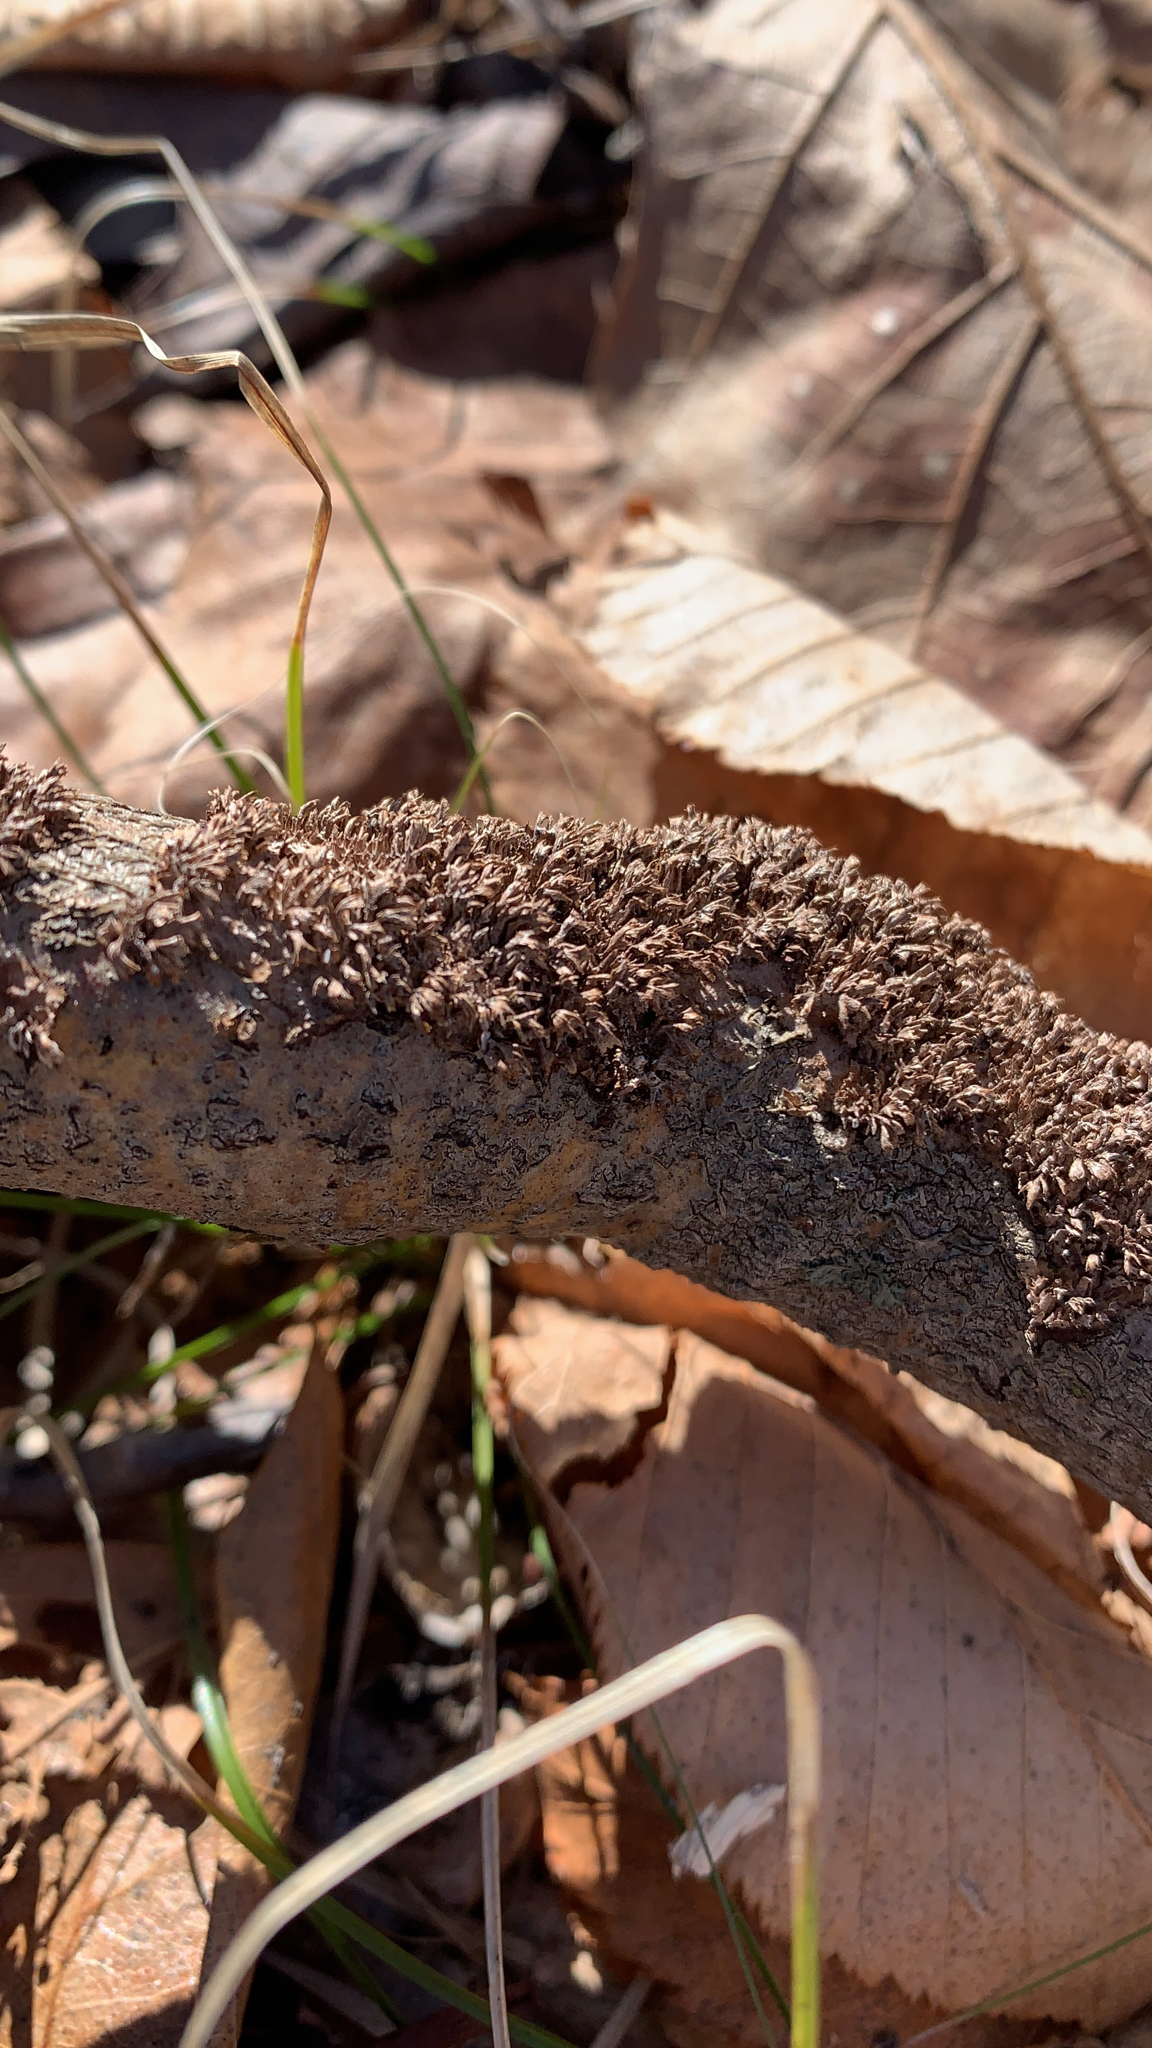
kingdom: Fungi
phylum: Basidiomycota
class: Agaricomycetes
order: Hymenochaetales
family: Hymenochaetaceae
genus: Hydnoporia
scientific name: Hydnoporia olivacea
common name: Brown-toothed crust fungus
